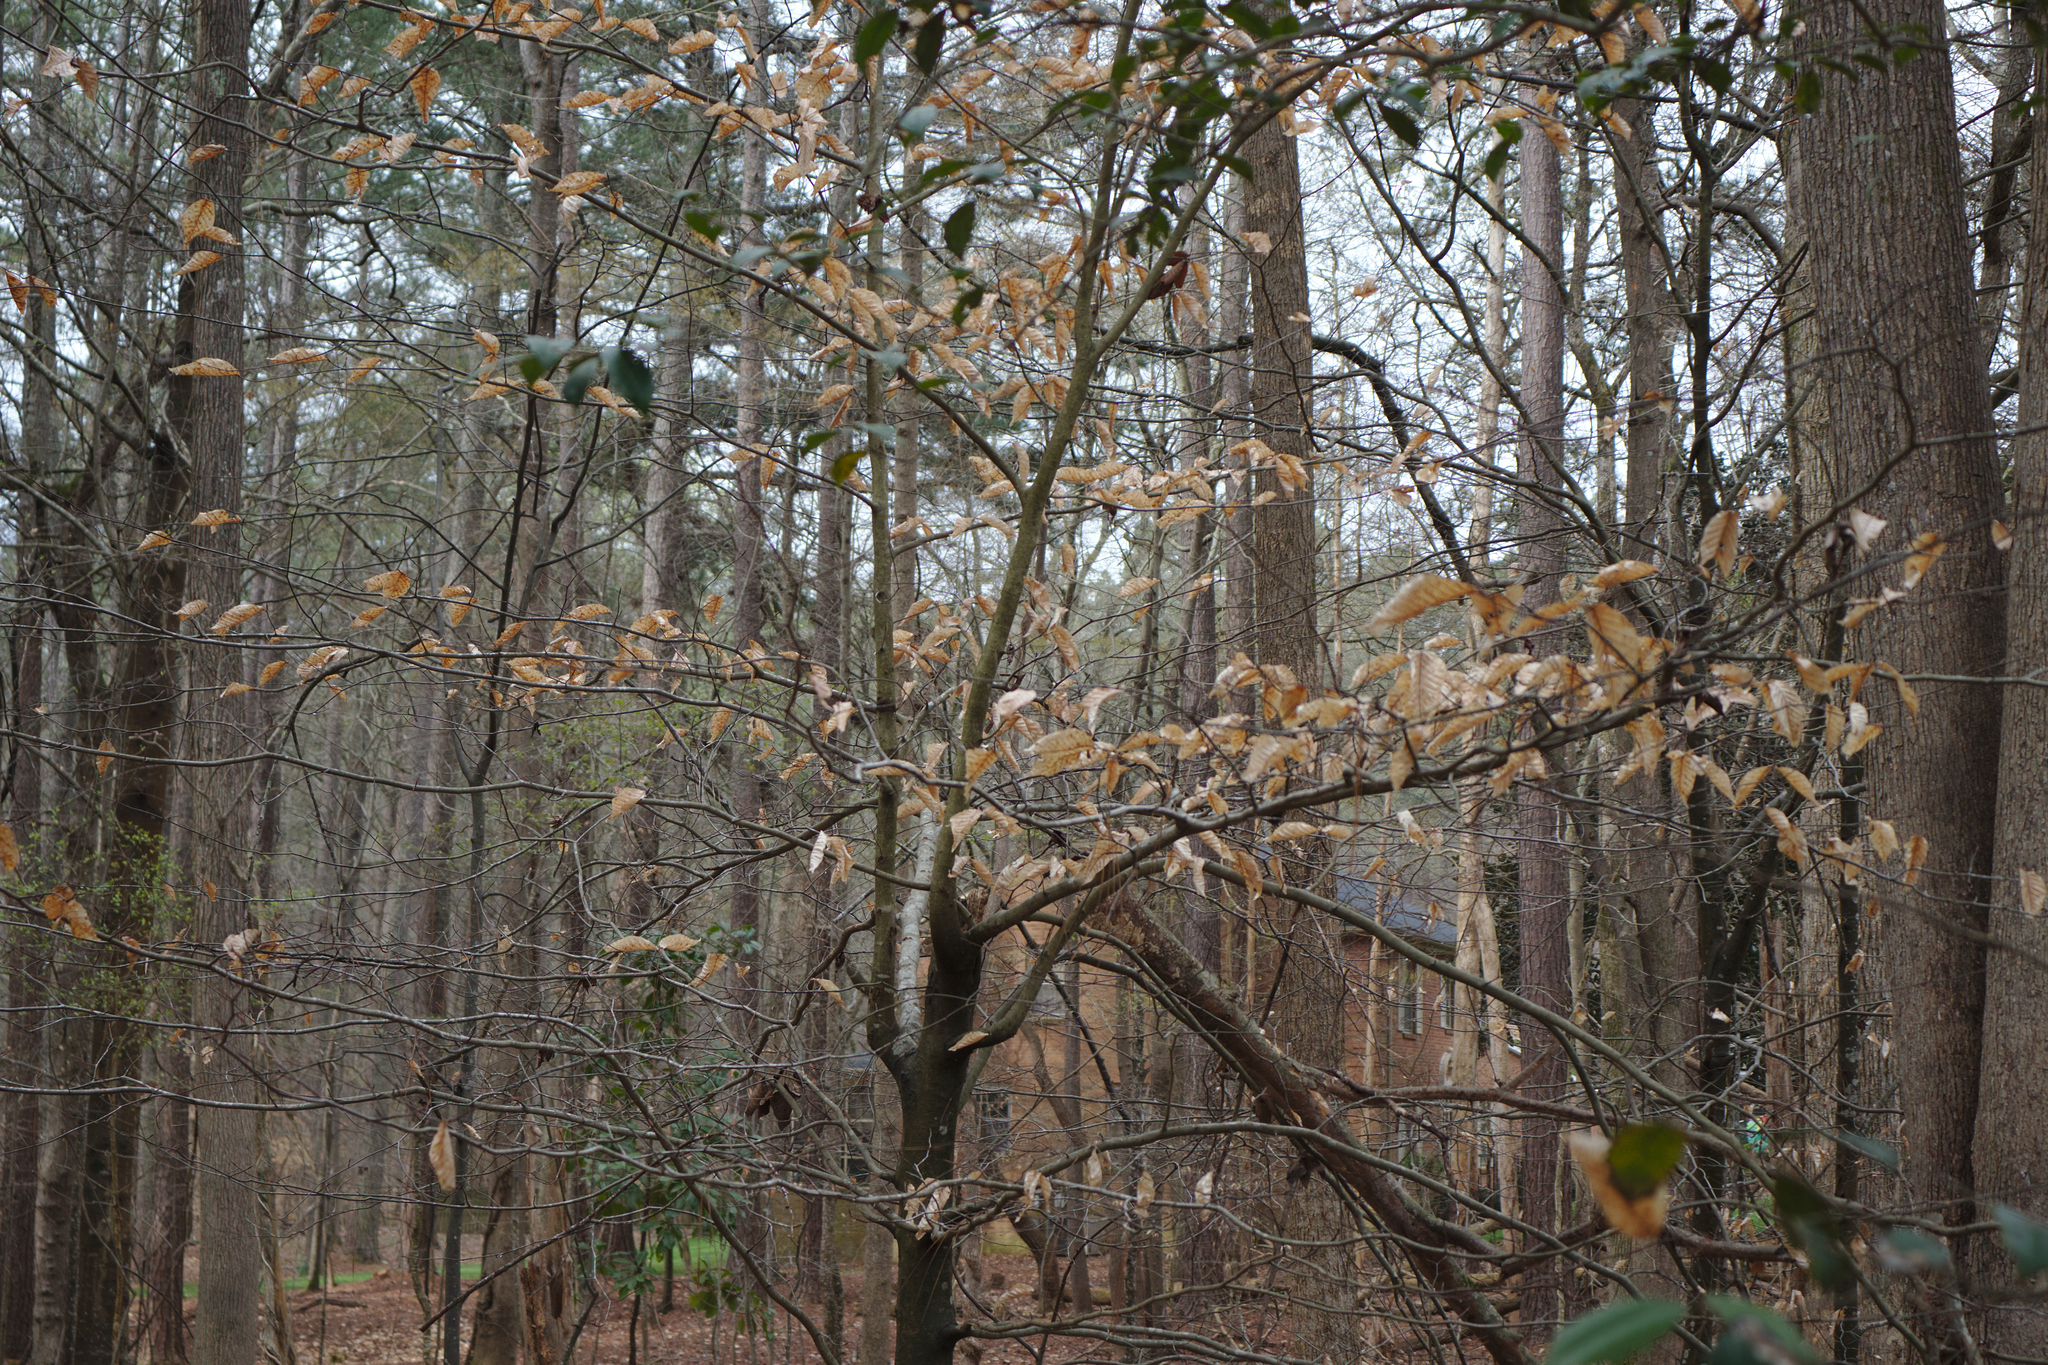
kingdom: Plantae
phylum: Tracheophyta
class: Magnoliopsida
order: Fagales
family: Fagaceae
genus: Fagus
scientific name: Fagus grandifolia
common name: American beech
